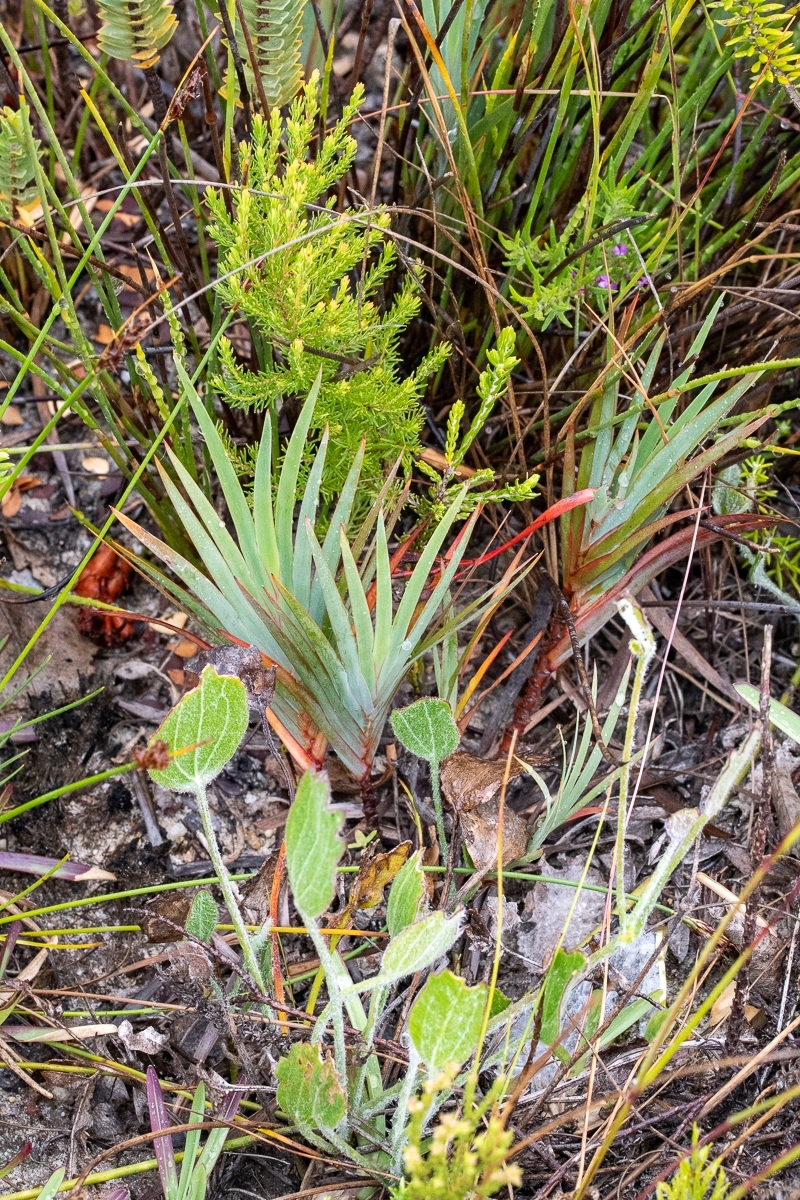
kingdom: Plantae
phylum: Tracheophyta
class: Liliopsida
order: Asparagales
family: Iridaceae
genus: Nivenia
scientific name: Nivenia stokoei
